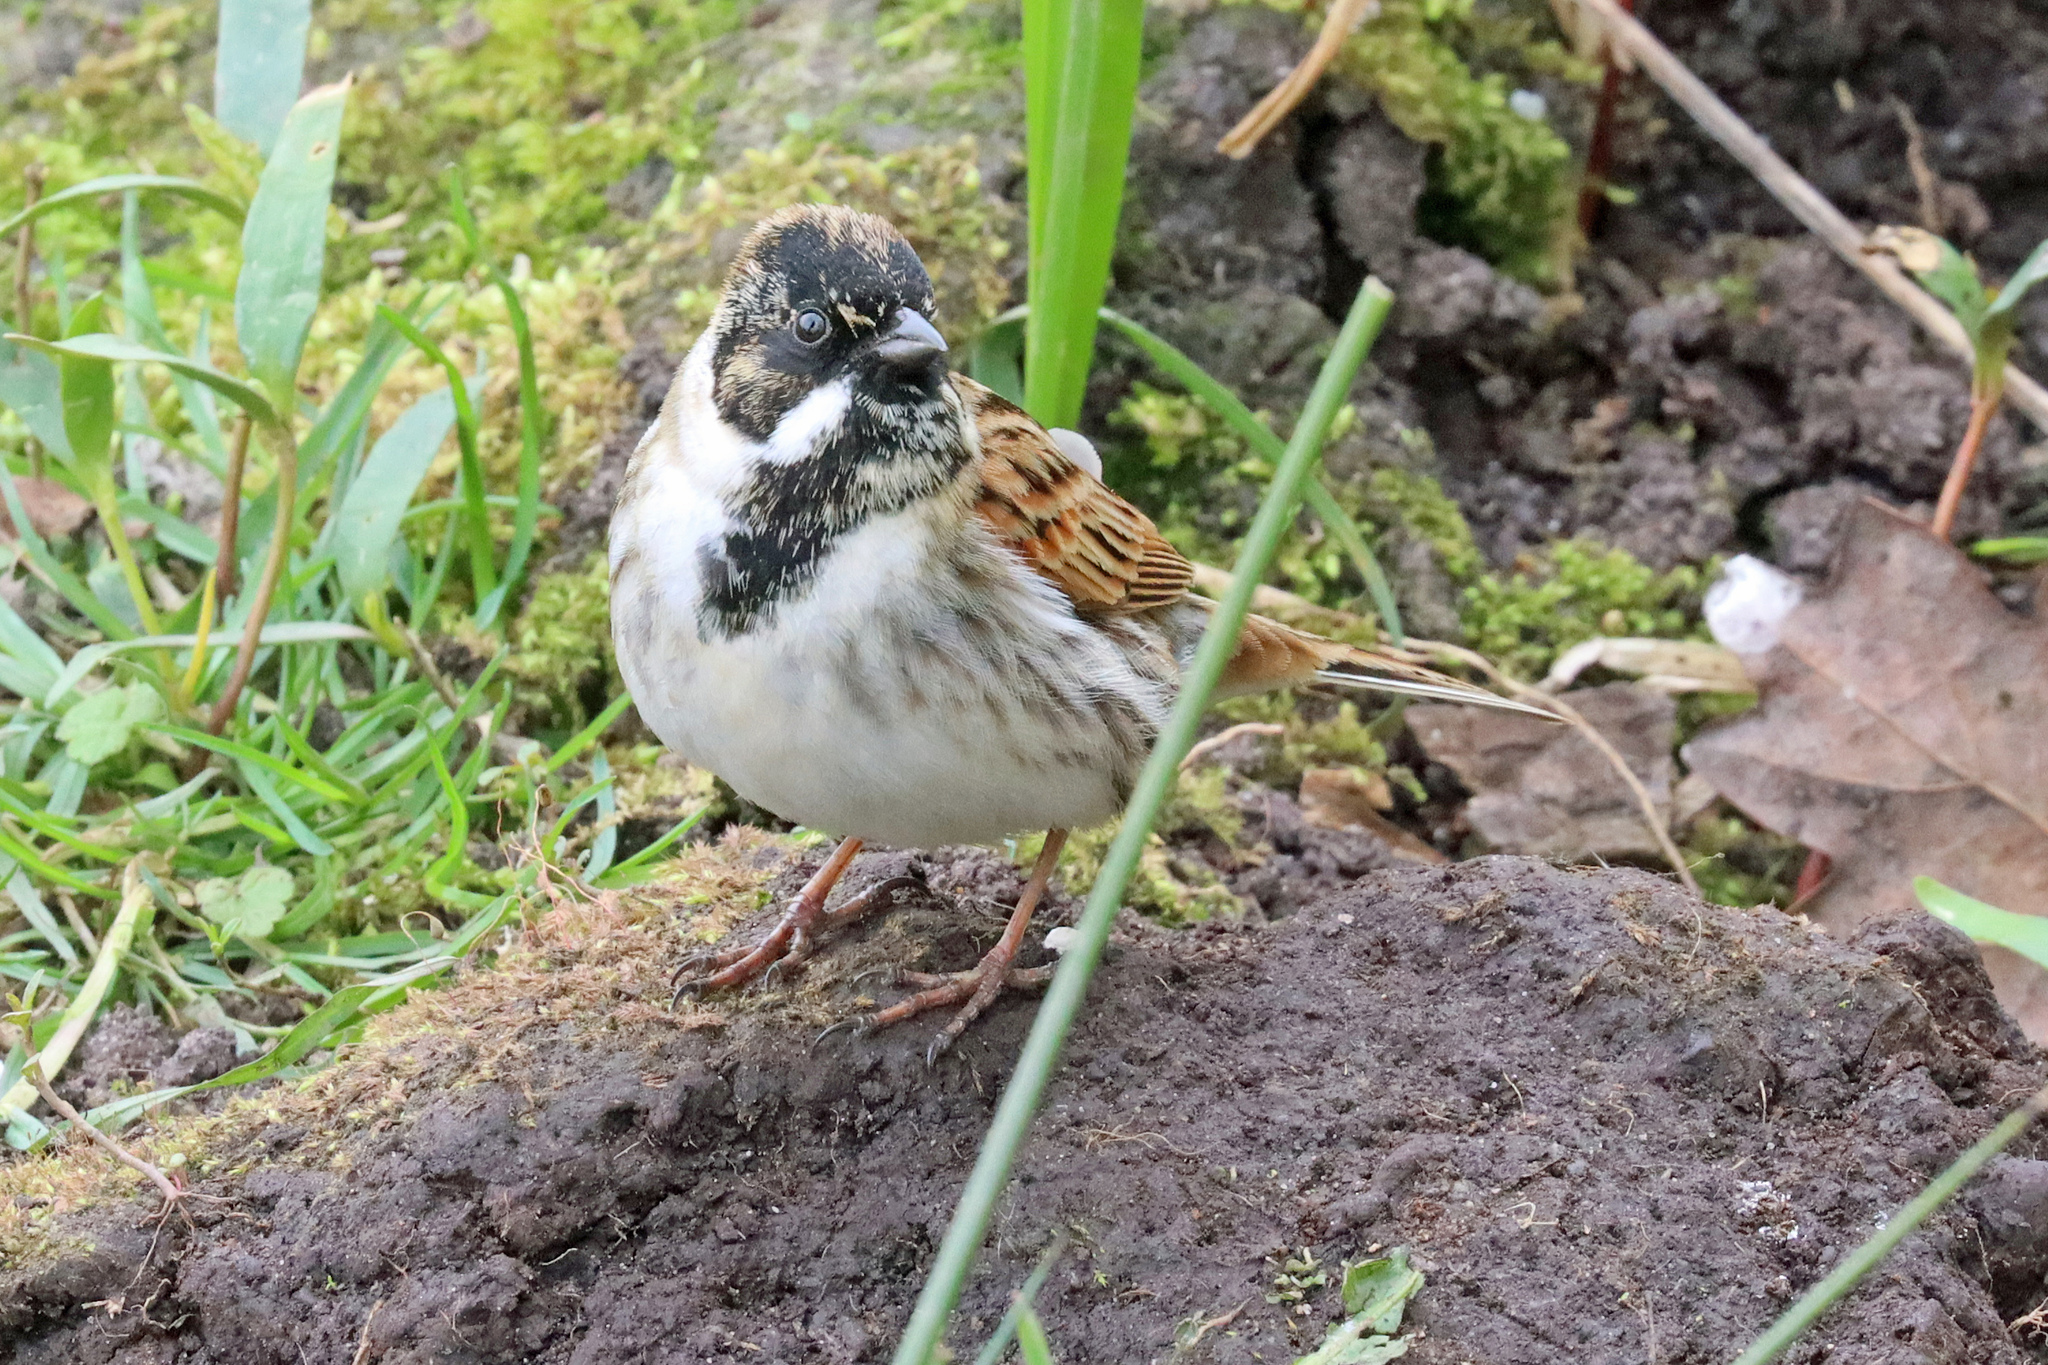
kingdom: Animalia
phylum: Chordata
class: Aves
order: Passeriformes
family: Emberizidae
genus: Emberiza
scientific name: Emberiza schoeniclus
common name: Reed bunting
